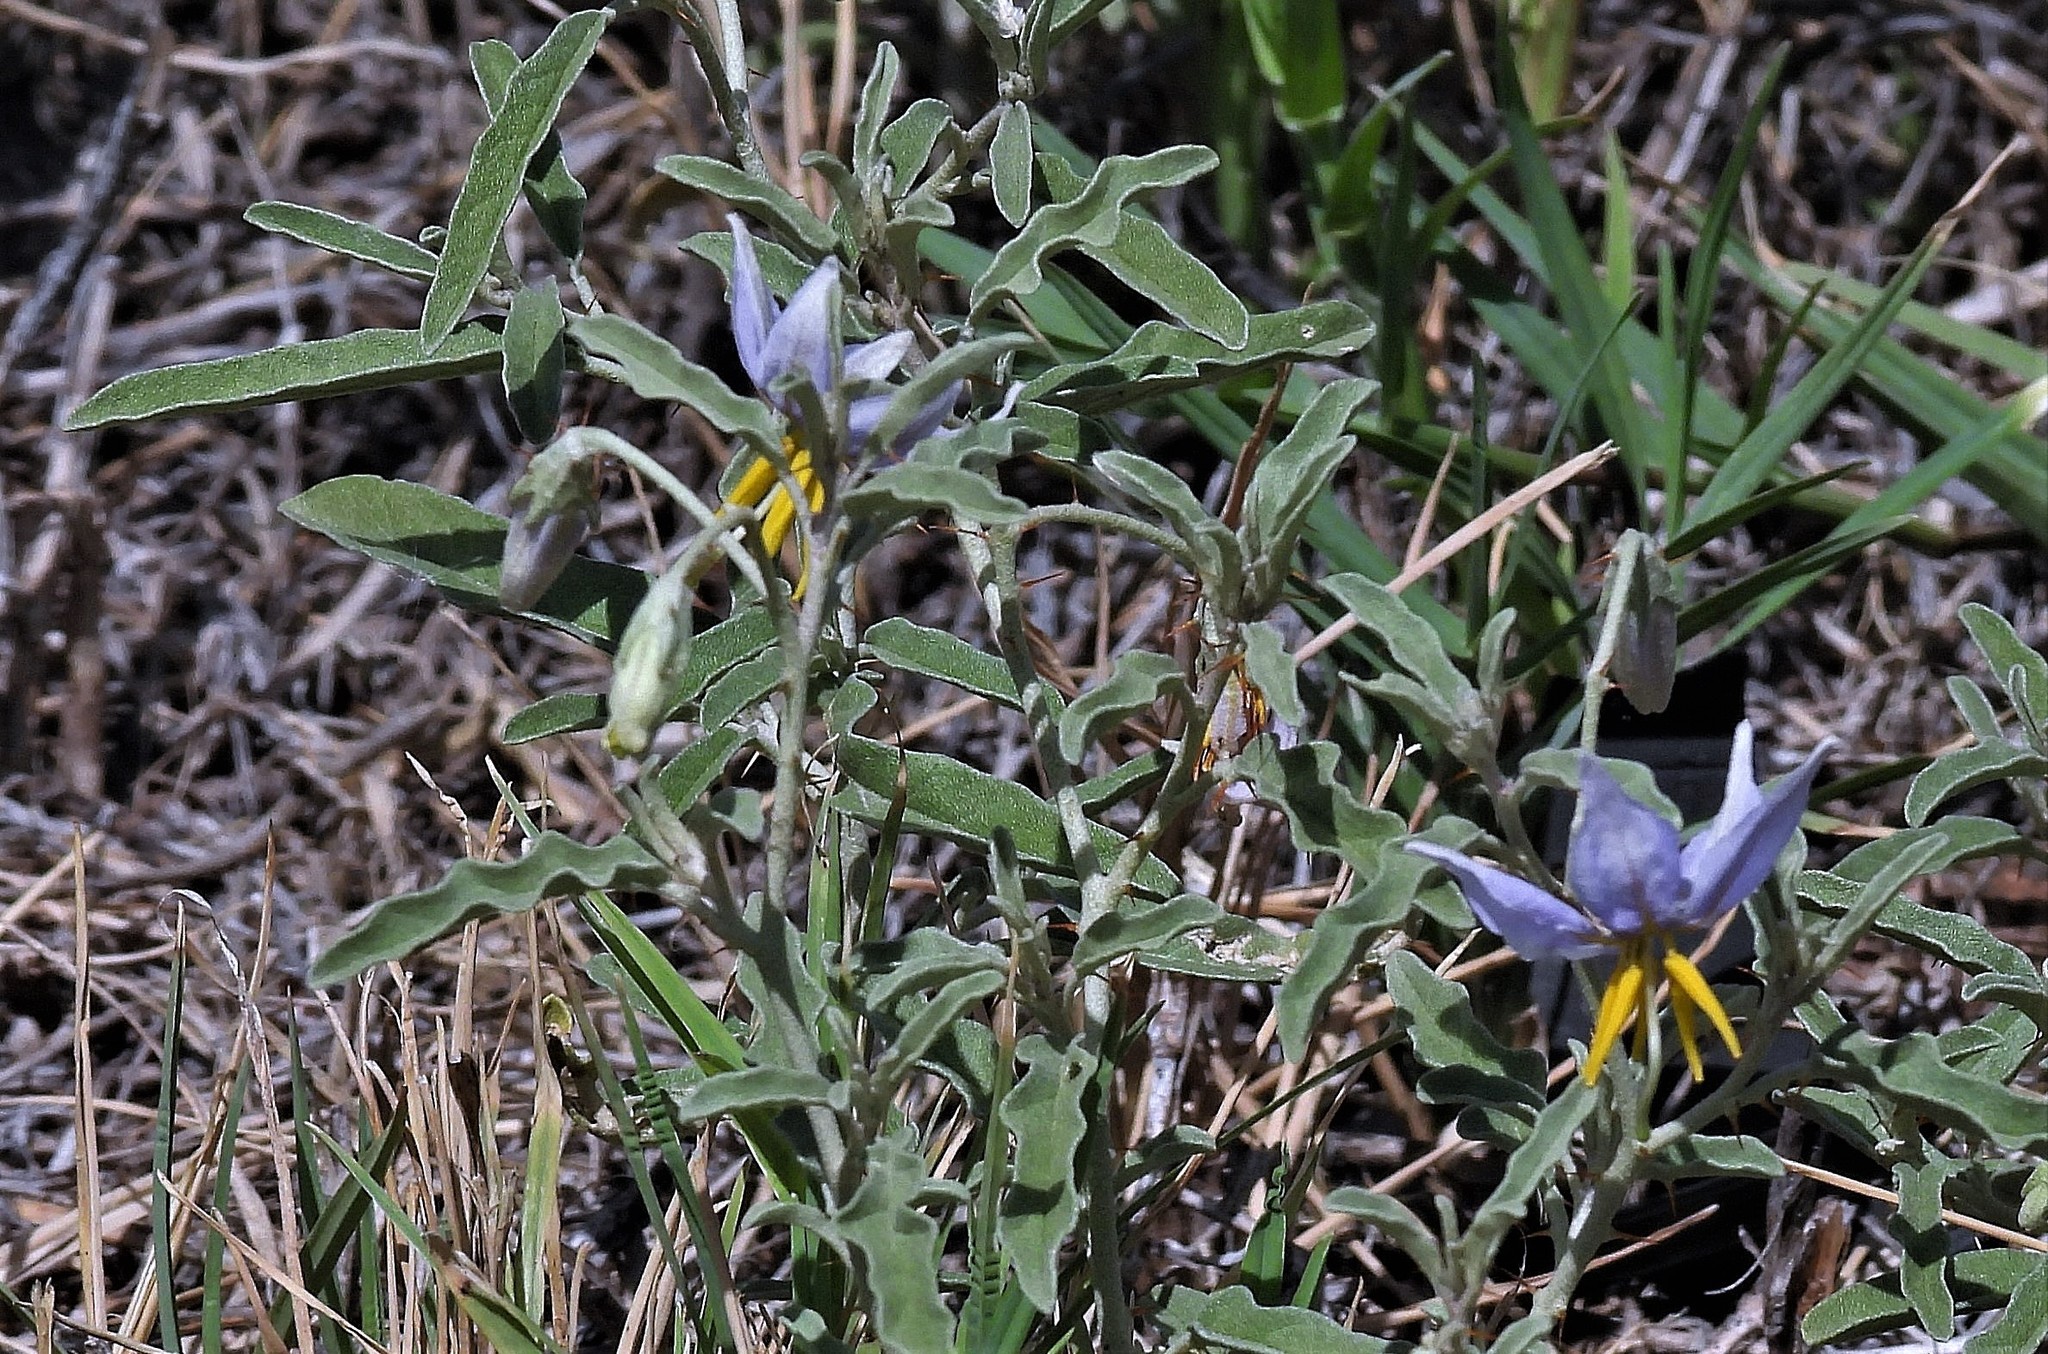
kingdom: Plantae
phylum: Tracheophyta
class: Magnoliopsida
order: Solanales
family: Solanaceae
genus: Solanum
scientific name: Solanum elaeagnifolium
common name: Silverleaf nightshade
